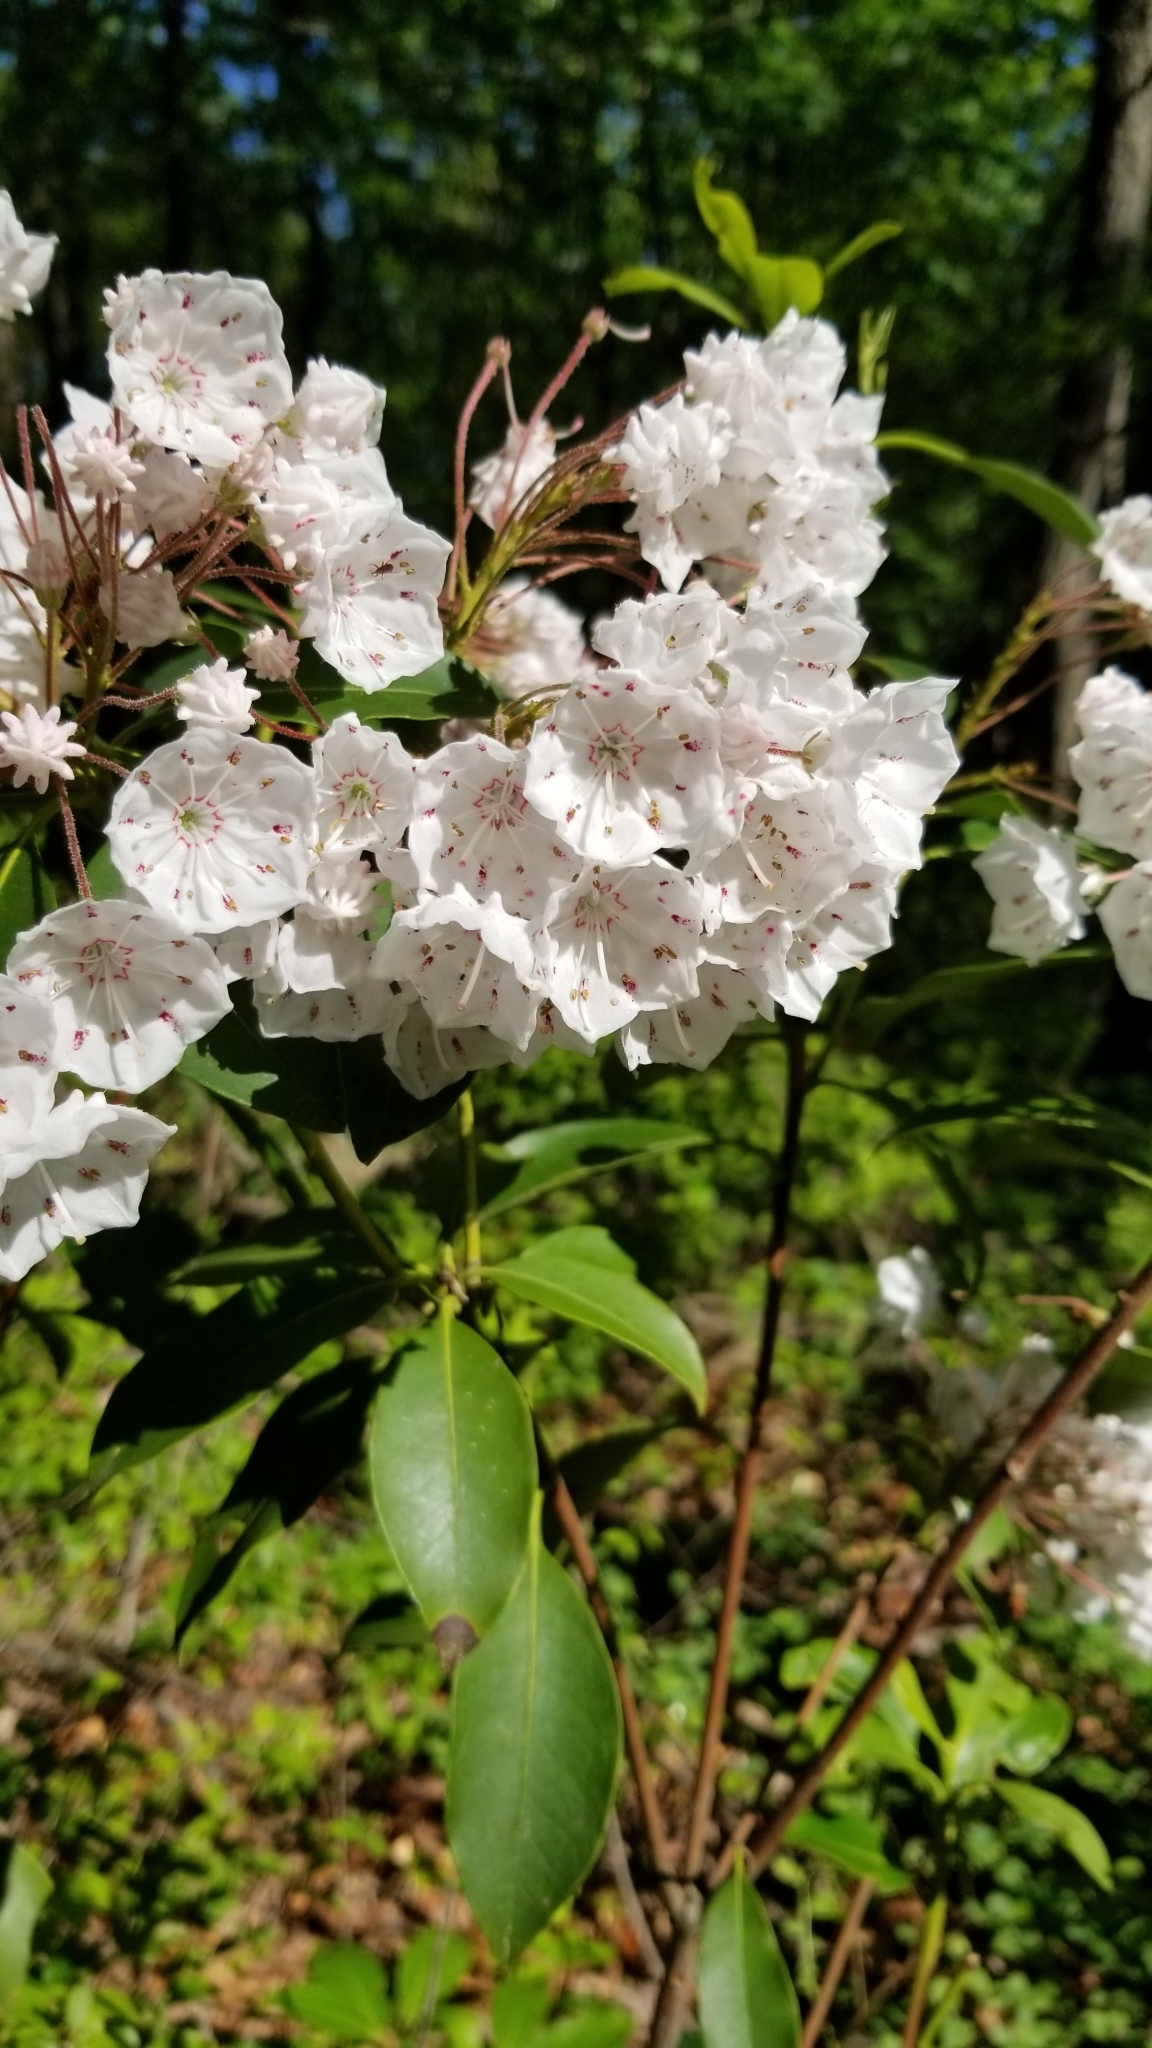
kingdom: Plantae
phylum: Tracheophyta
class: Magnoliopsida
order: Ericales
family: Ericaceae
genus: Kalmia
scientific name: Kalmia latifolia
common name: Mountain-laurel
